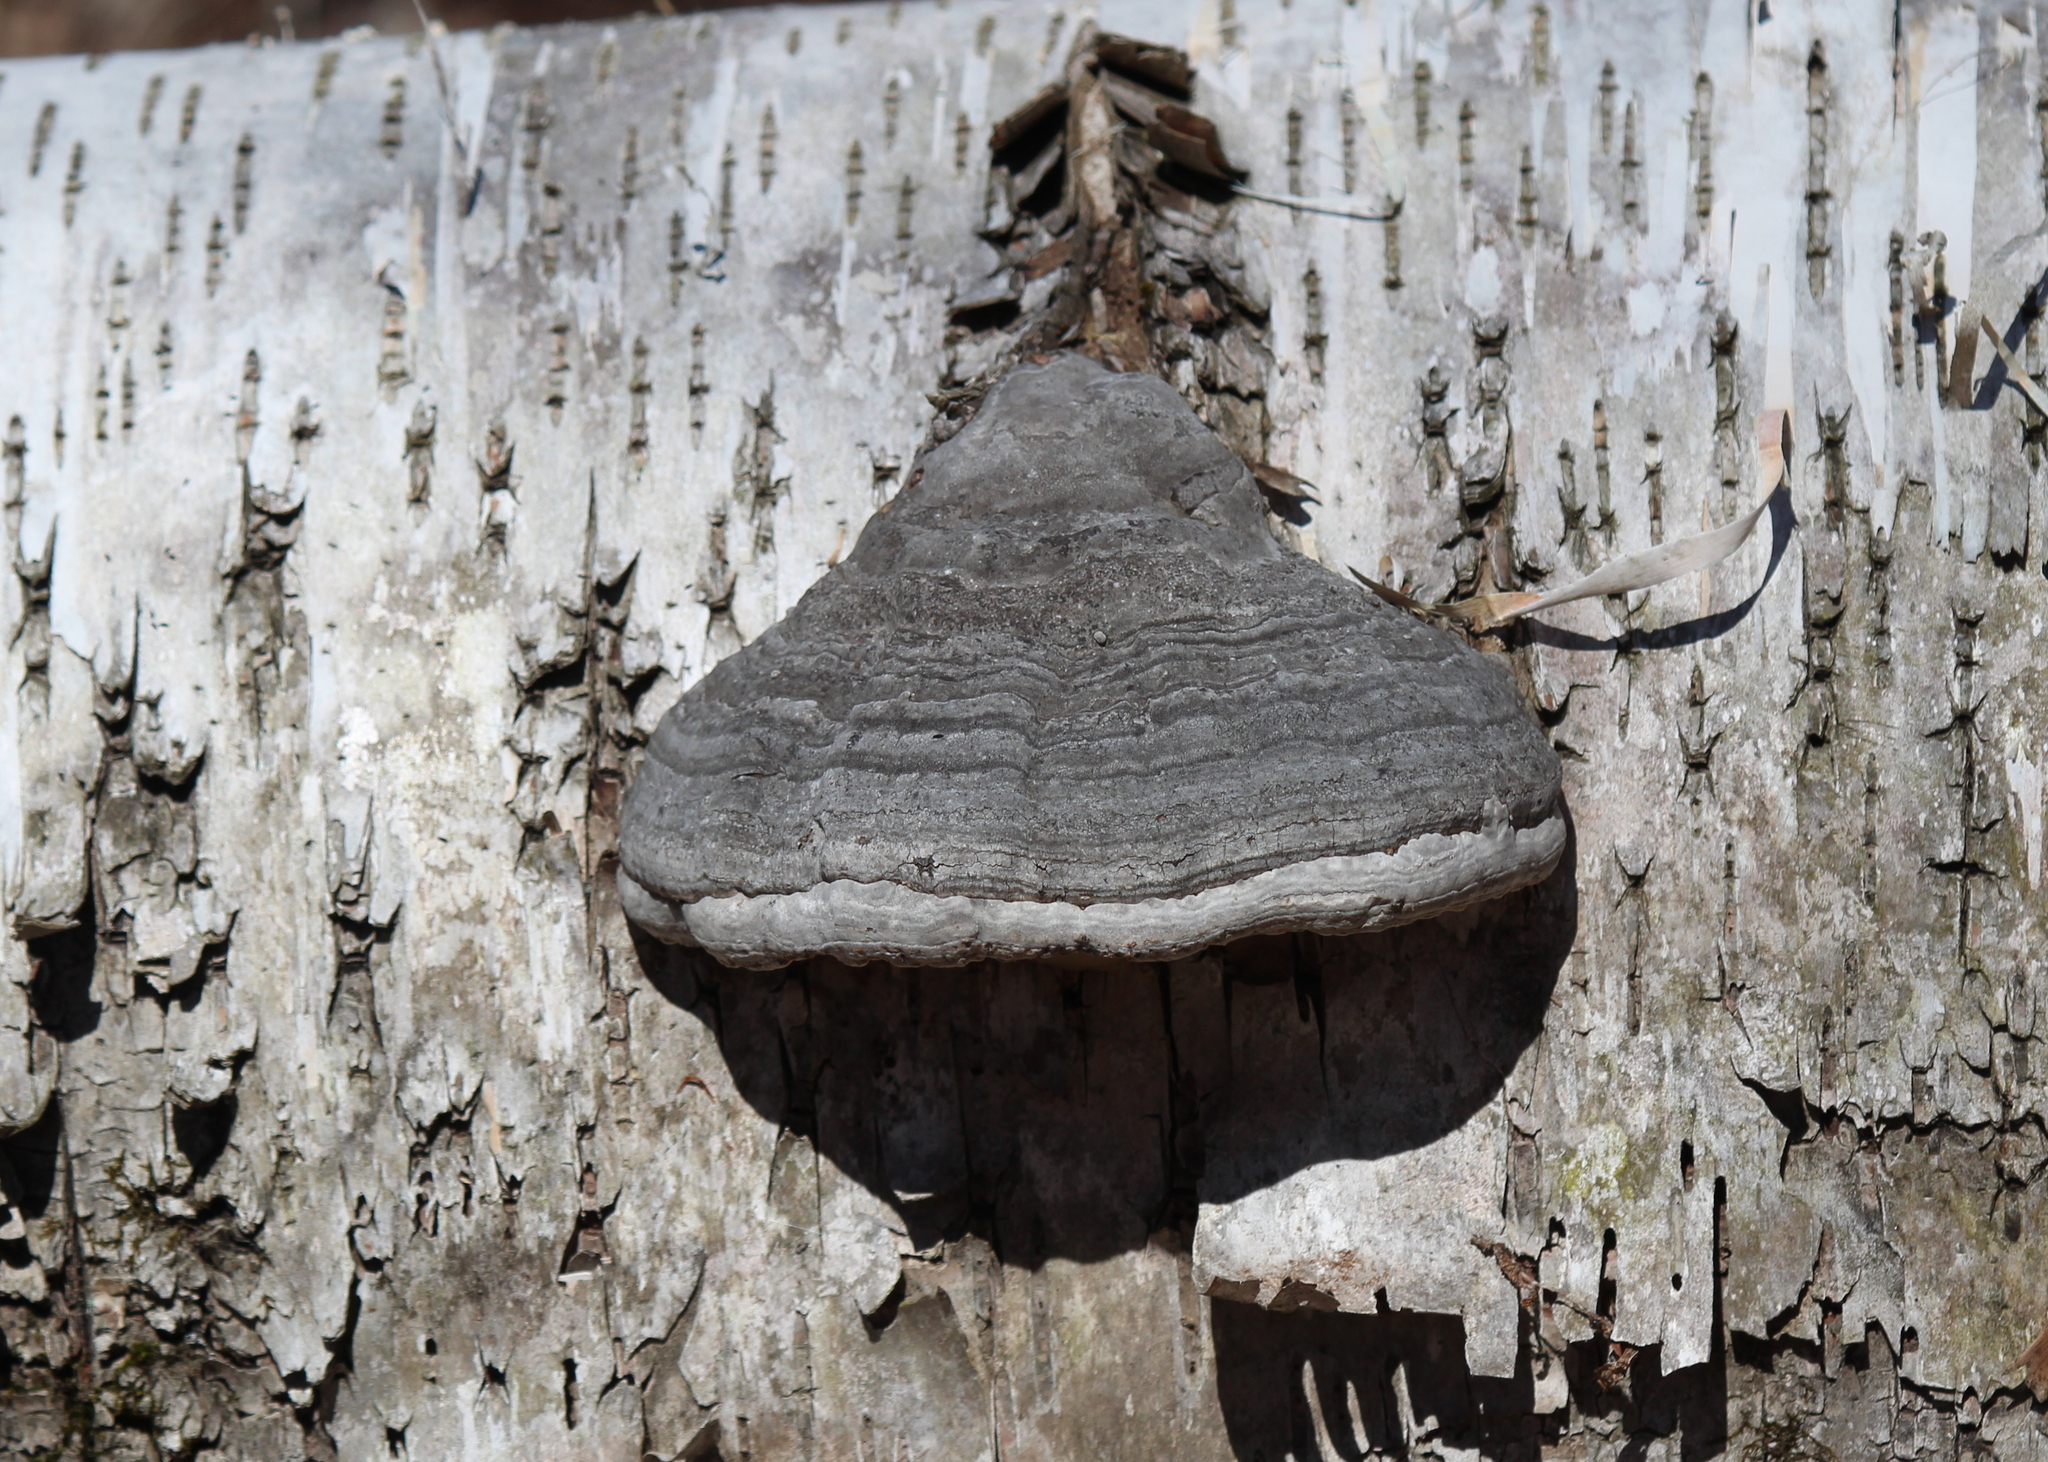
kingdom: Fungi
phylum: Basidiomycota
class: Agaricomycetes
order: Polyporales
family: Polyporaceae
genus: Fomes
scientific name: Fomes fomentarius
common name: Hoof fungus
